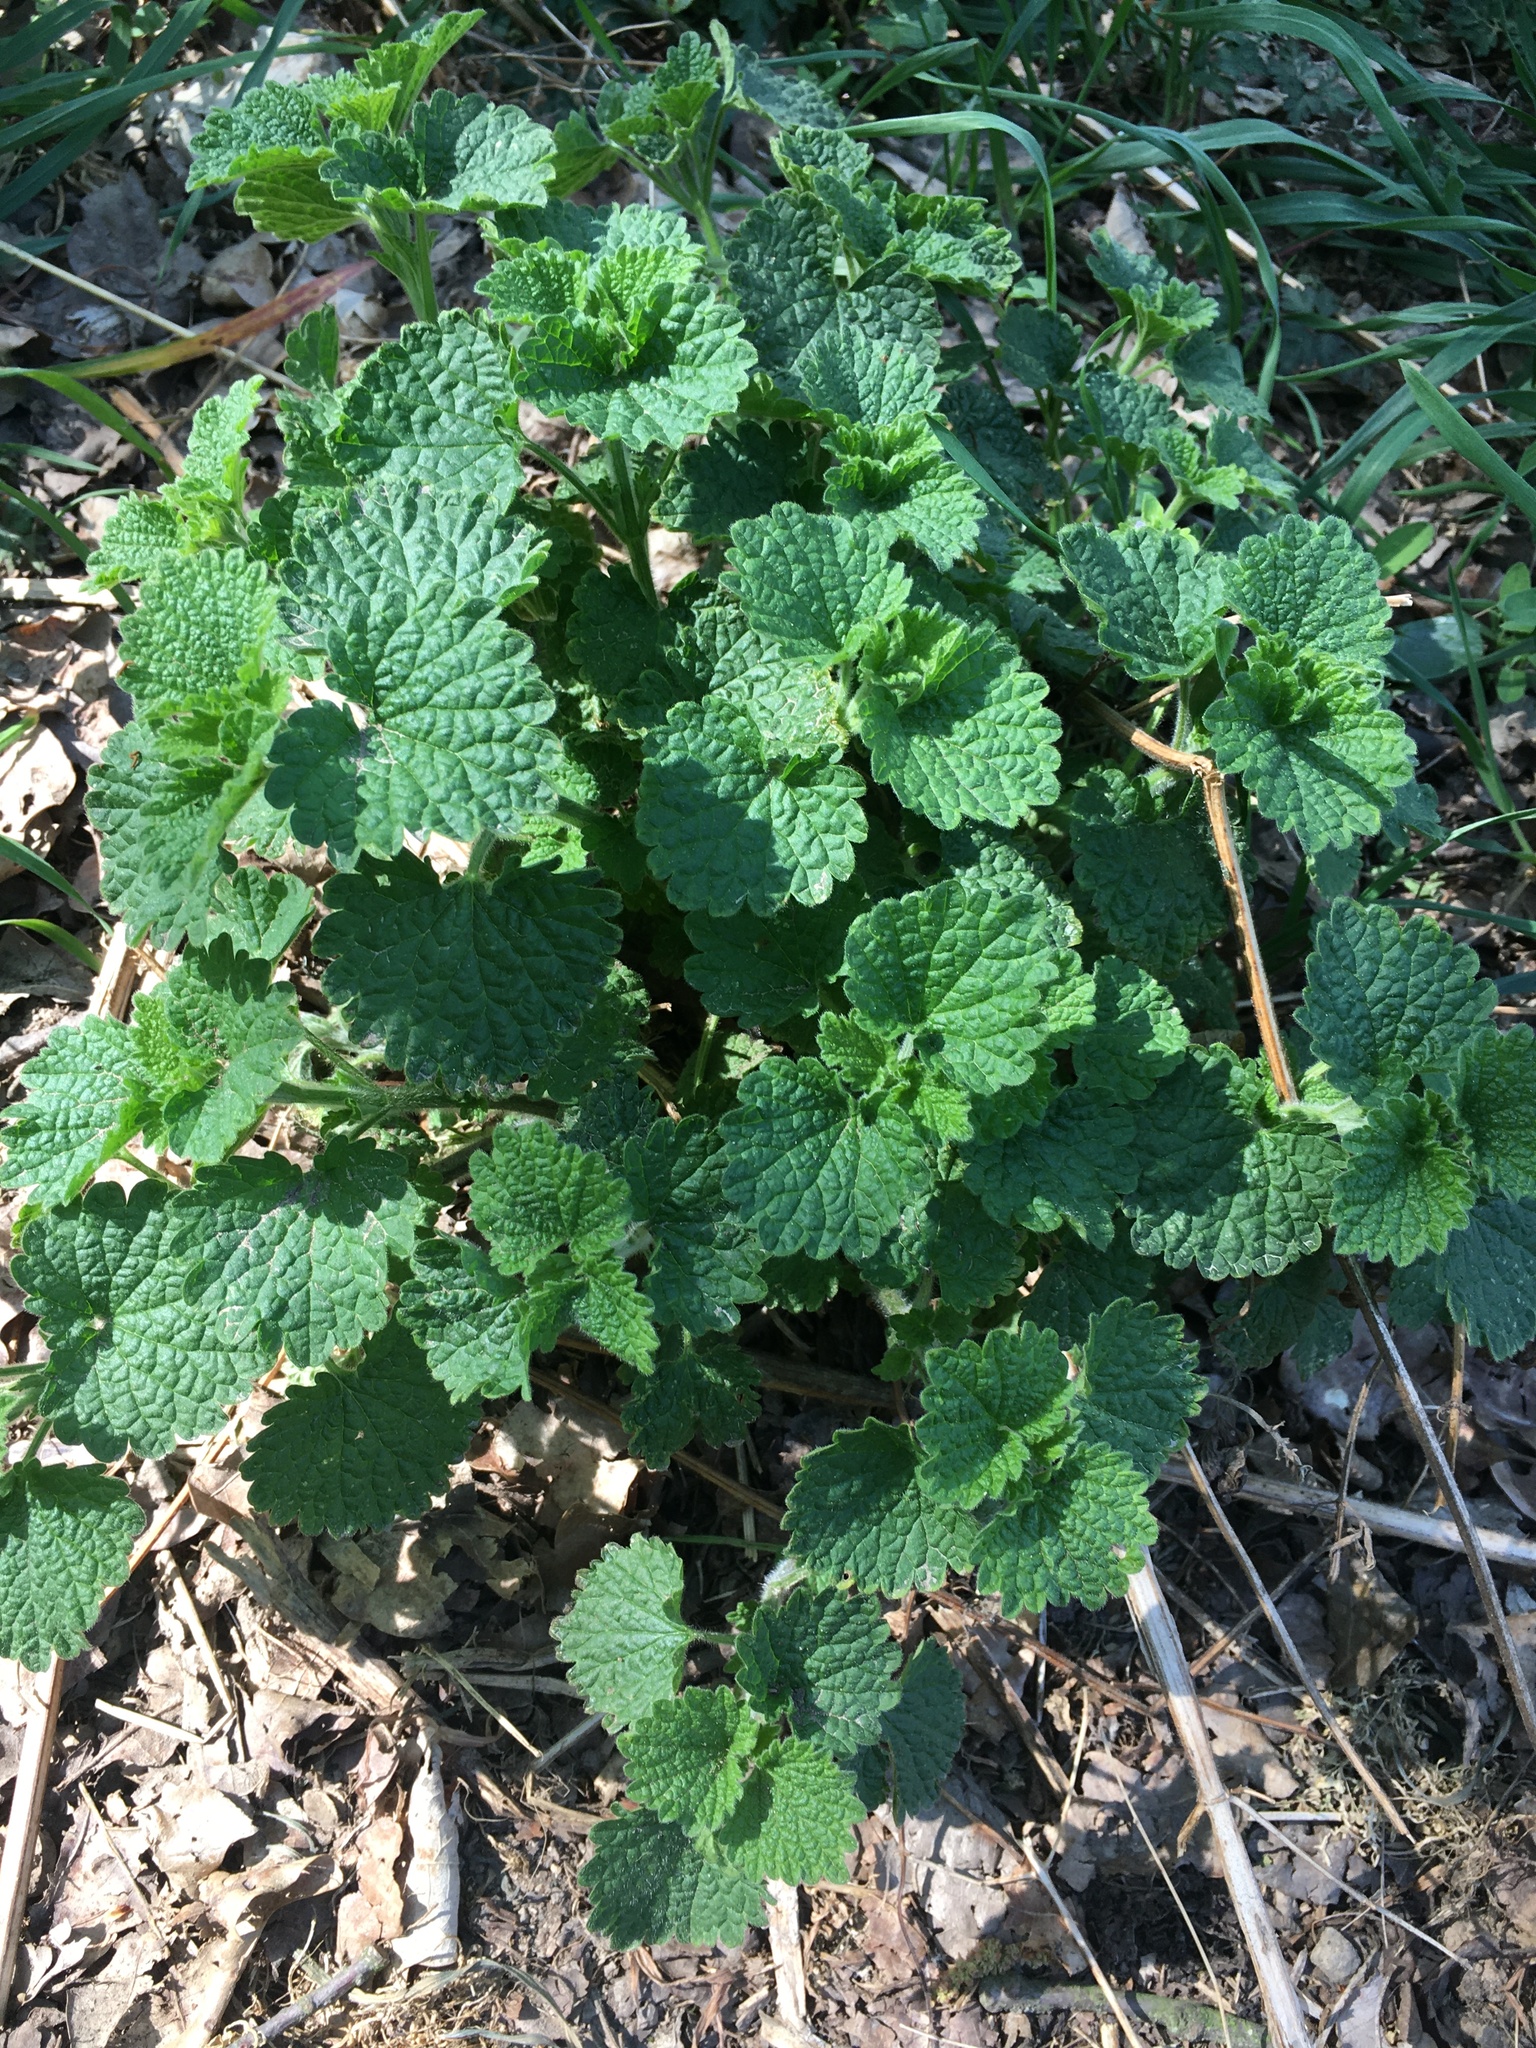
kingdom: Plantae
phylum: Tracheophyta
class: Magnoliopsida
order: Lamiales
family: Lamiaceae
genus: Ballota
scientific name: Ballota nigra
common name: Black horehound
